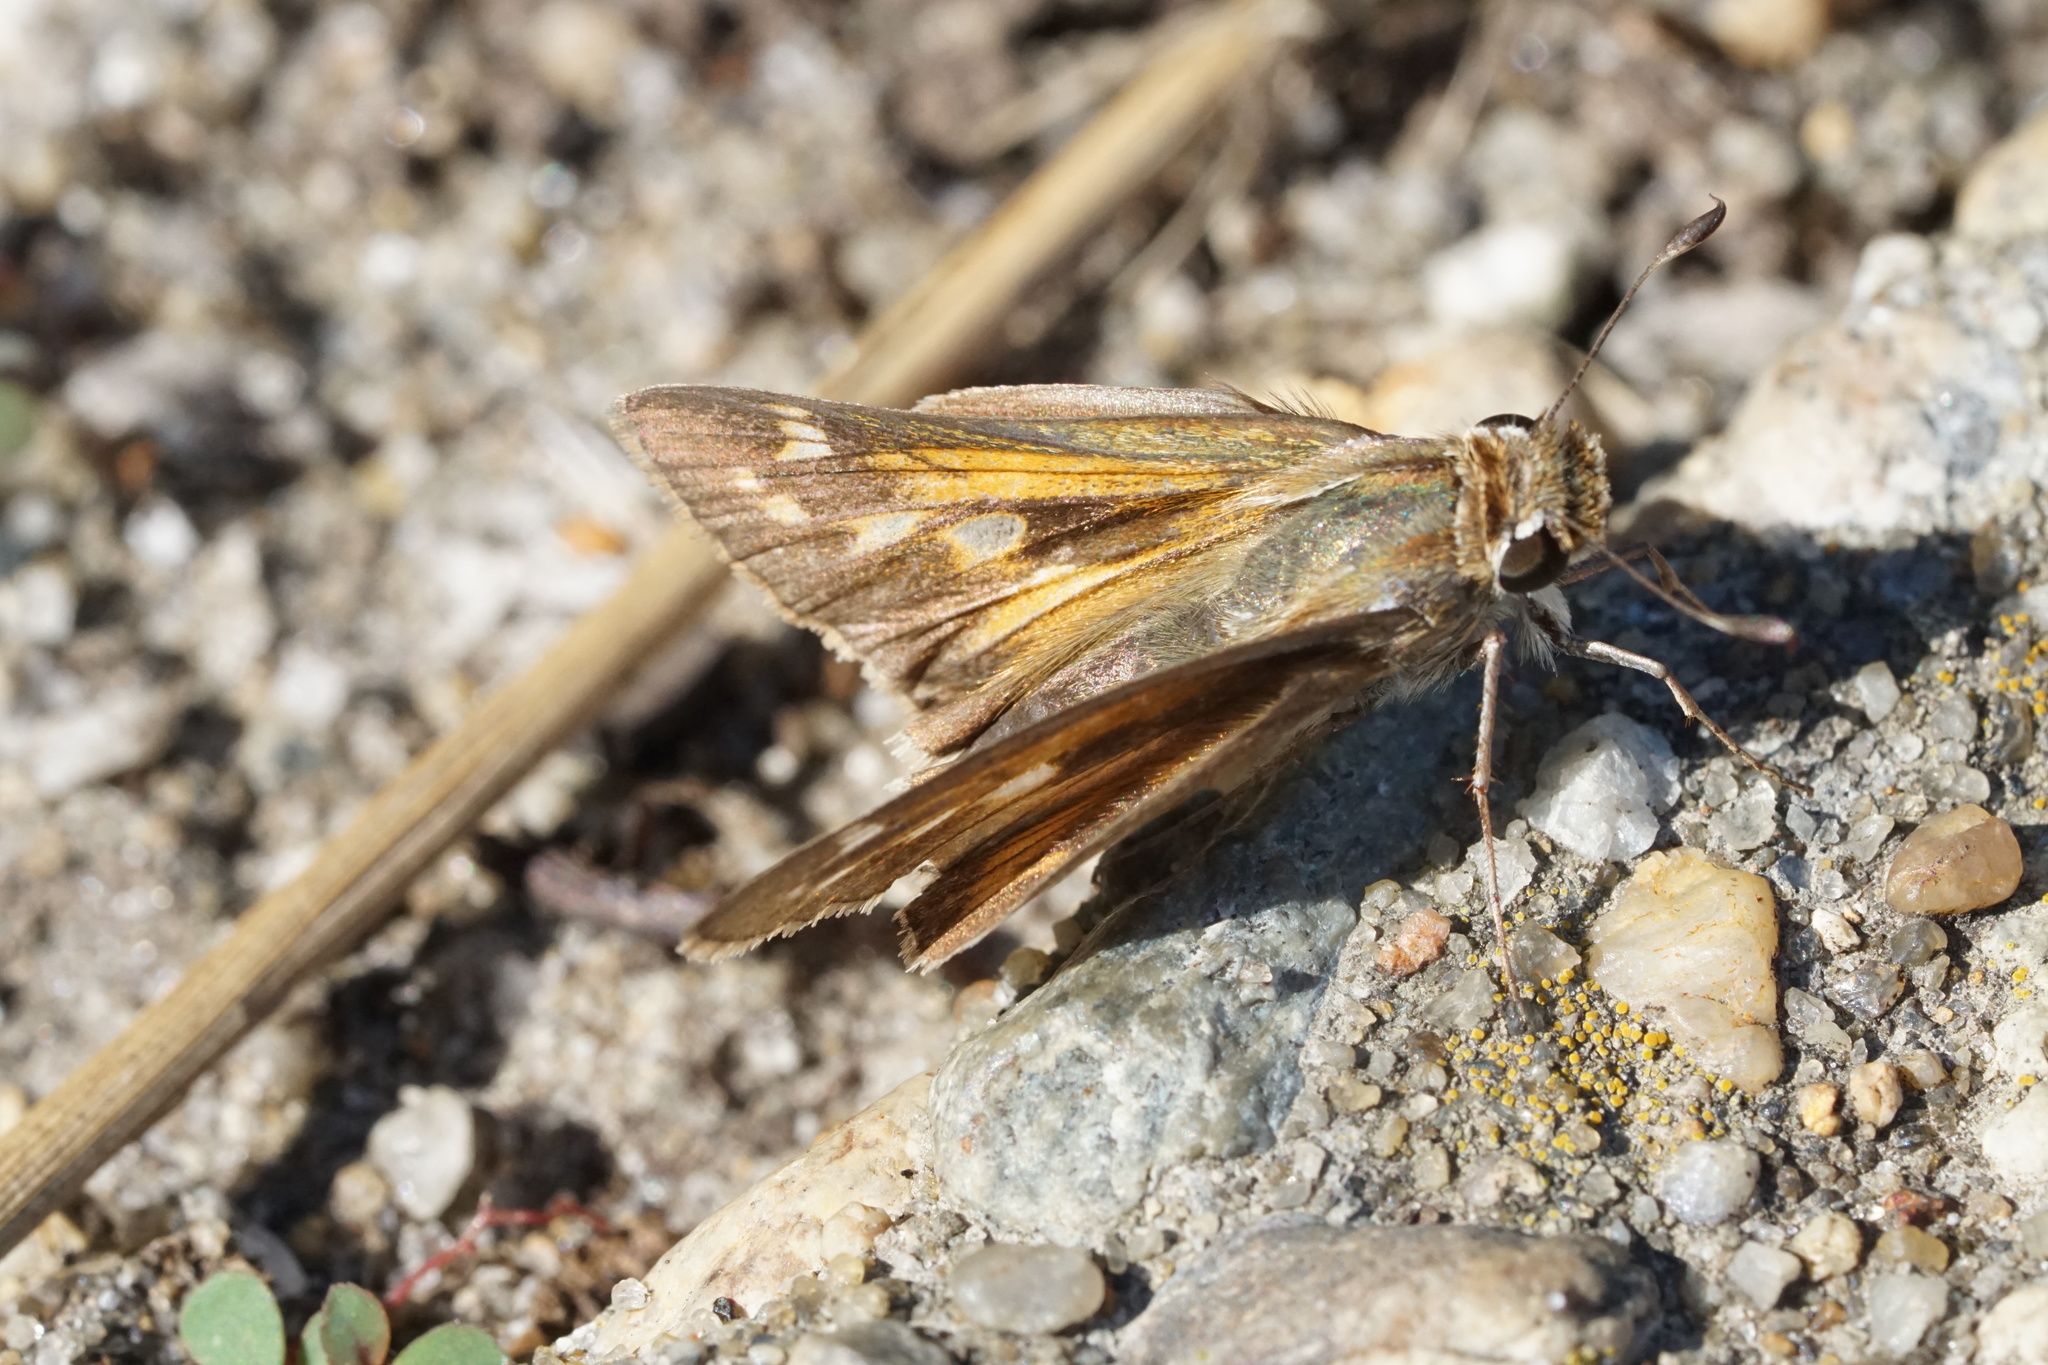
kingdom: Animalia
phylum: Arthropoda
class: Insecta
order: Lepidoptera
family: Hesperiidae
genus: Atalopedes
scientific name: Atalopedes
